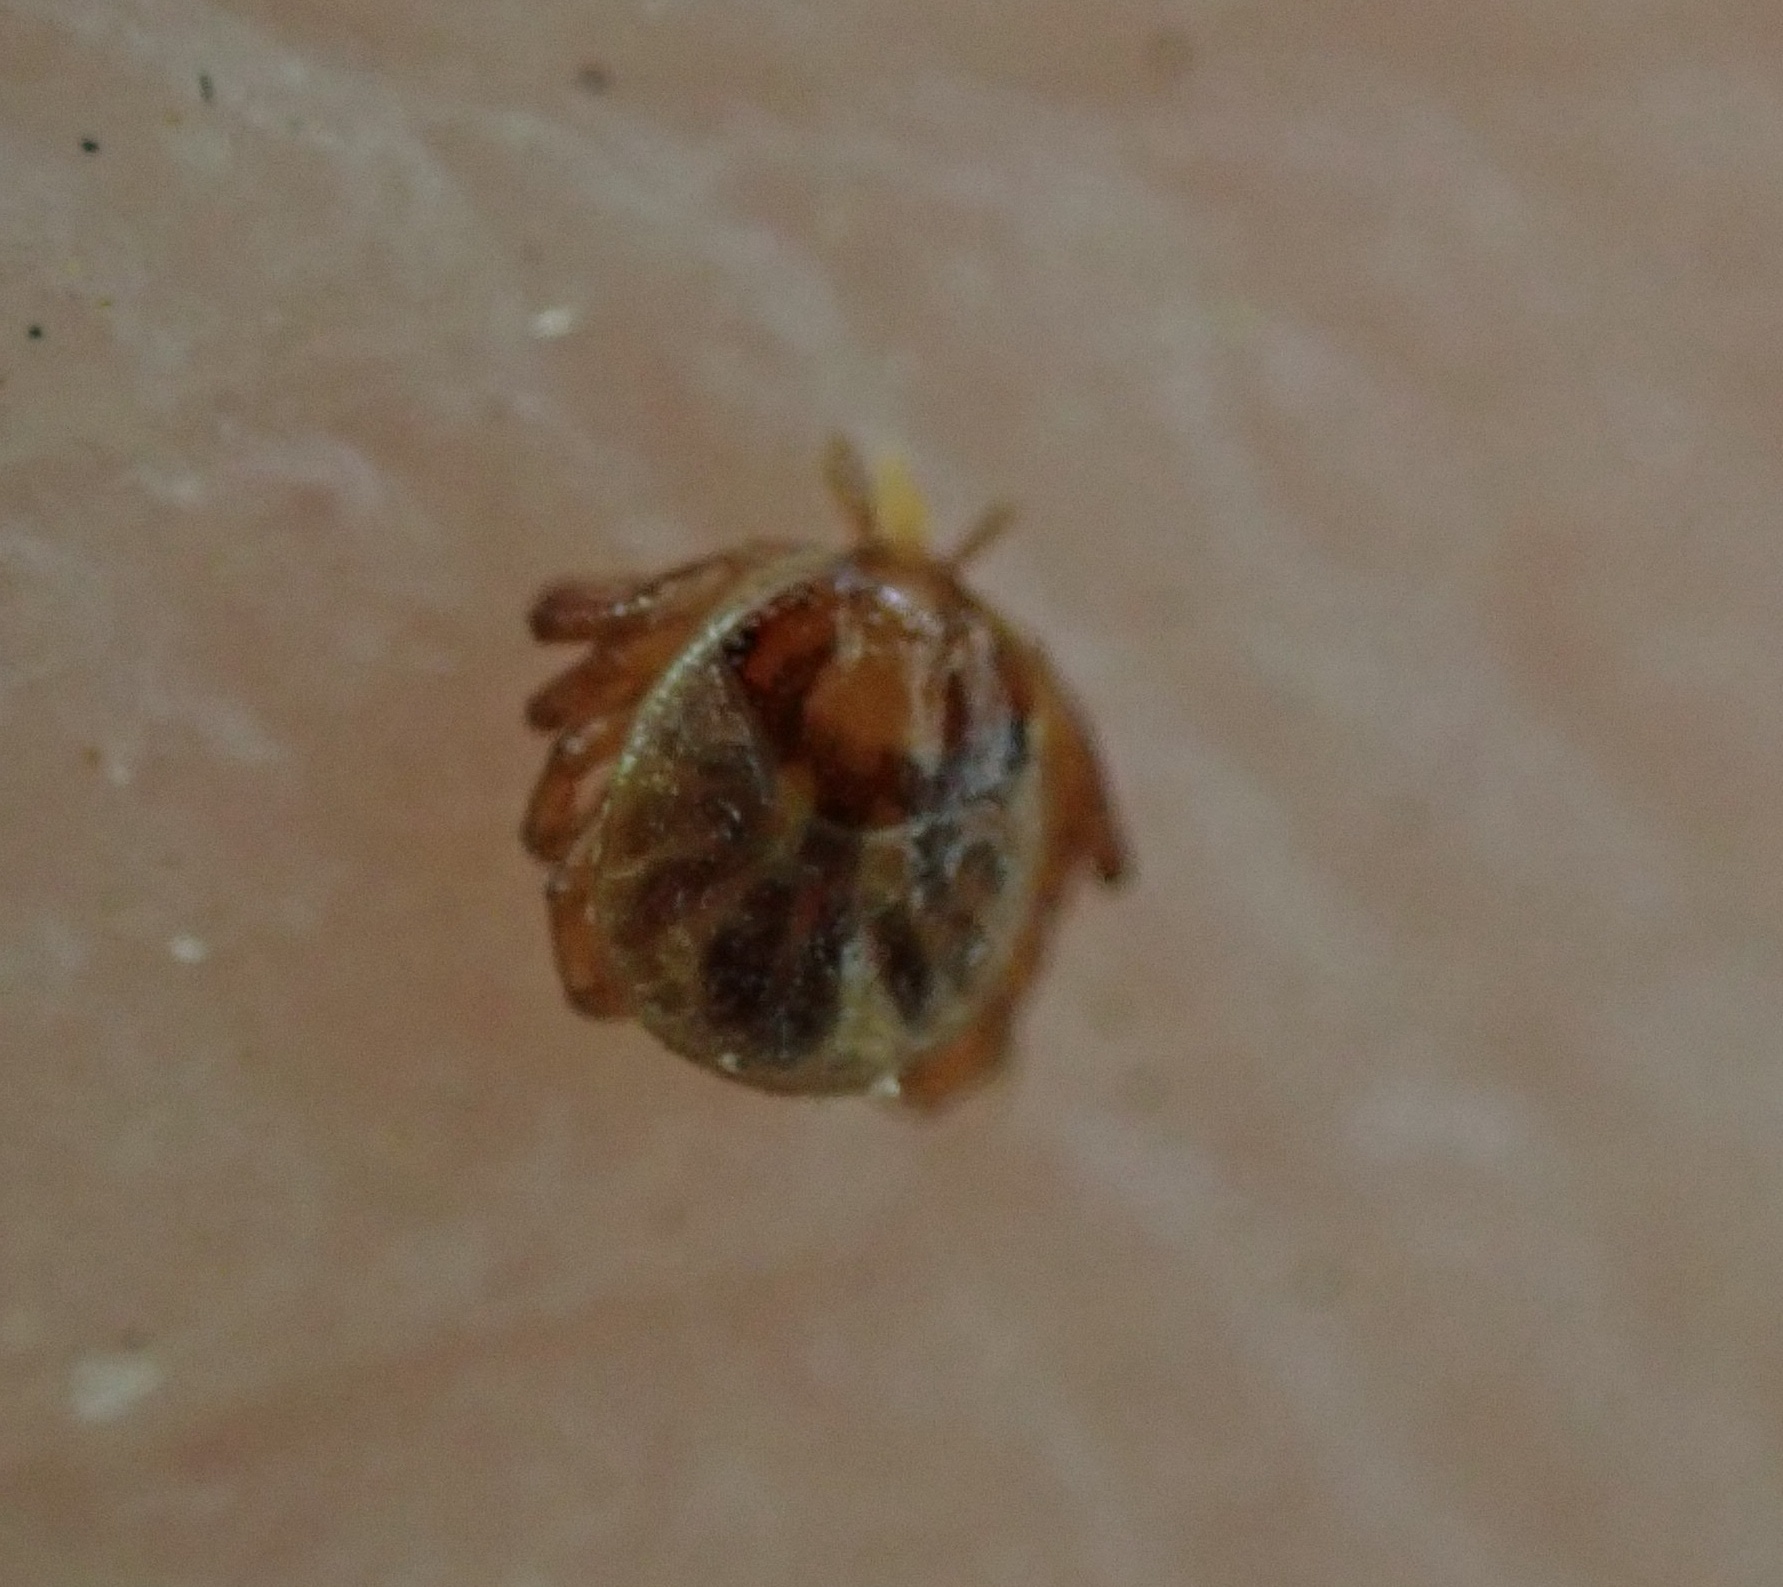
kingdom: Animalia
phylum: Arthropoda
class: Arachnida
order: Ixodida
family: Ixodidae
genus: Amblyomma
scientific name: Amblyomma americanum
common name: Lone star tick
